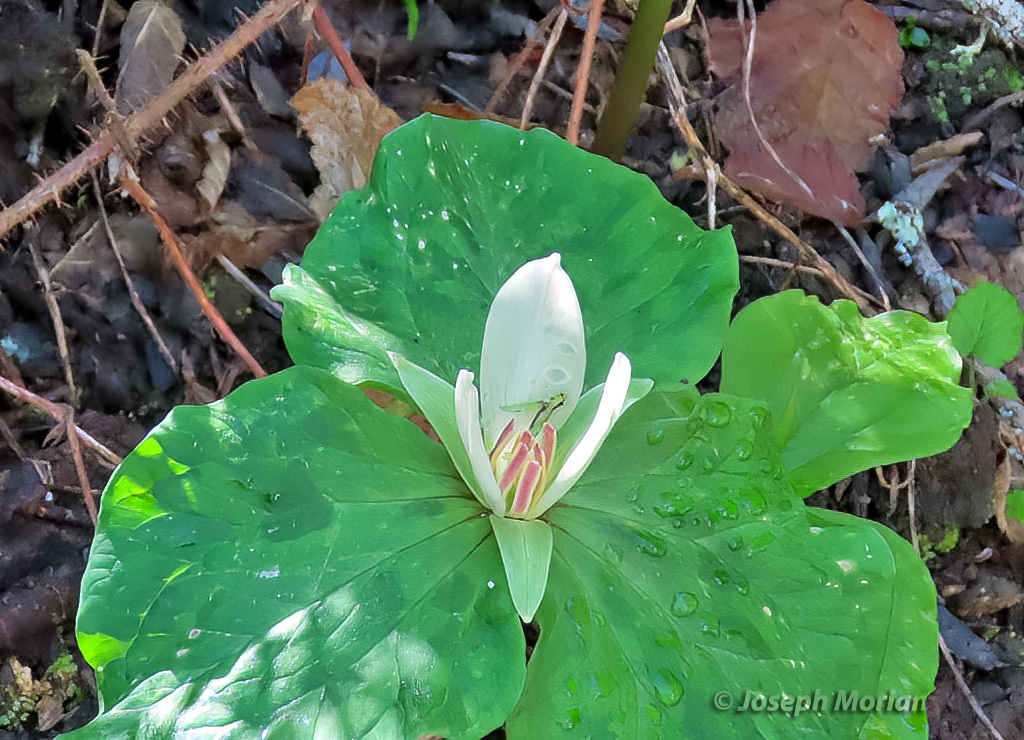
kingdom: Plantae
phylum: Tracheophyta
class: Liliopsida
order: Liliales
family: Melanthiaceae
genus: Trillium
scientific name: Trillium chloropetalum
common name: Giant trillium
